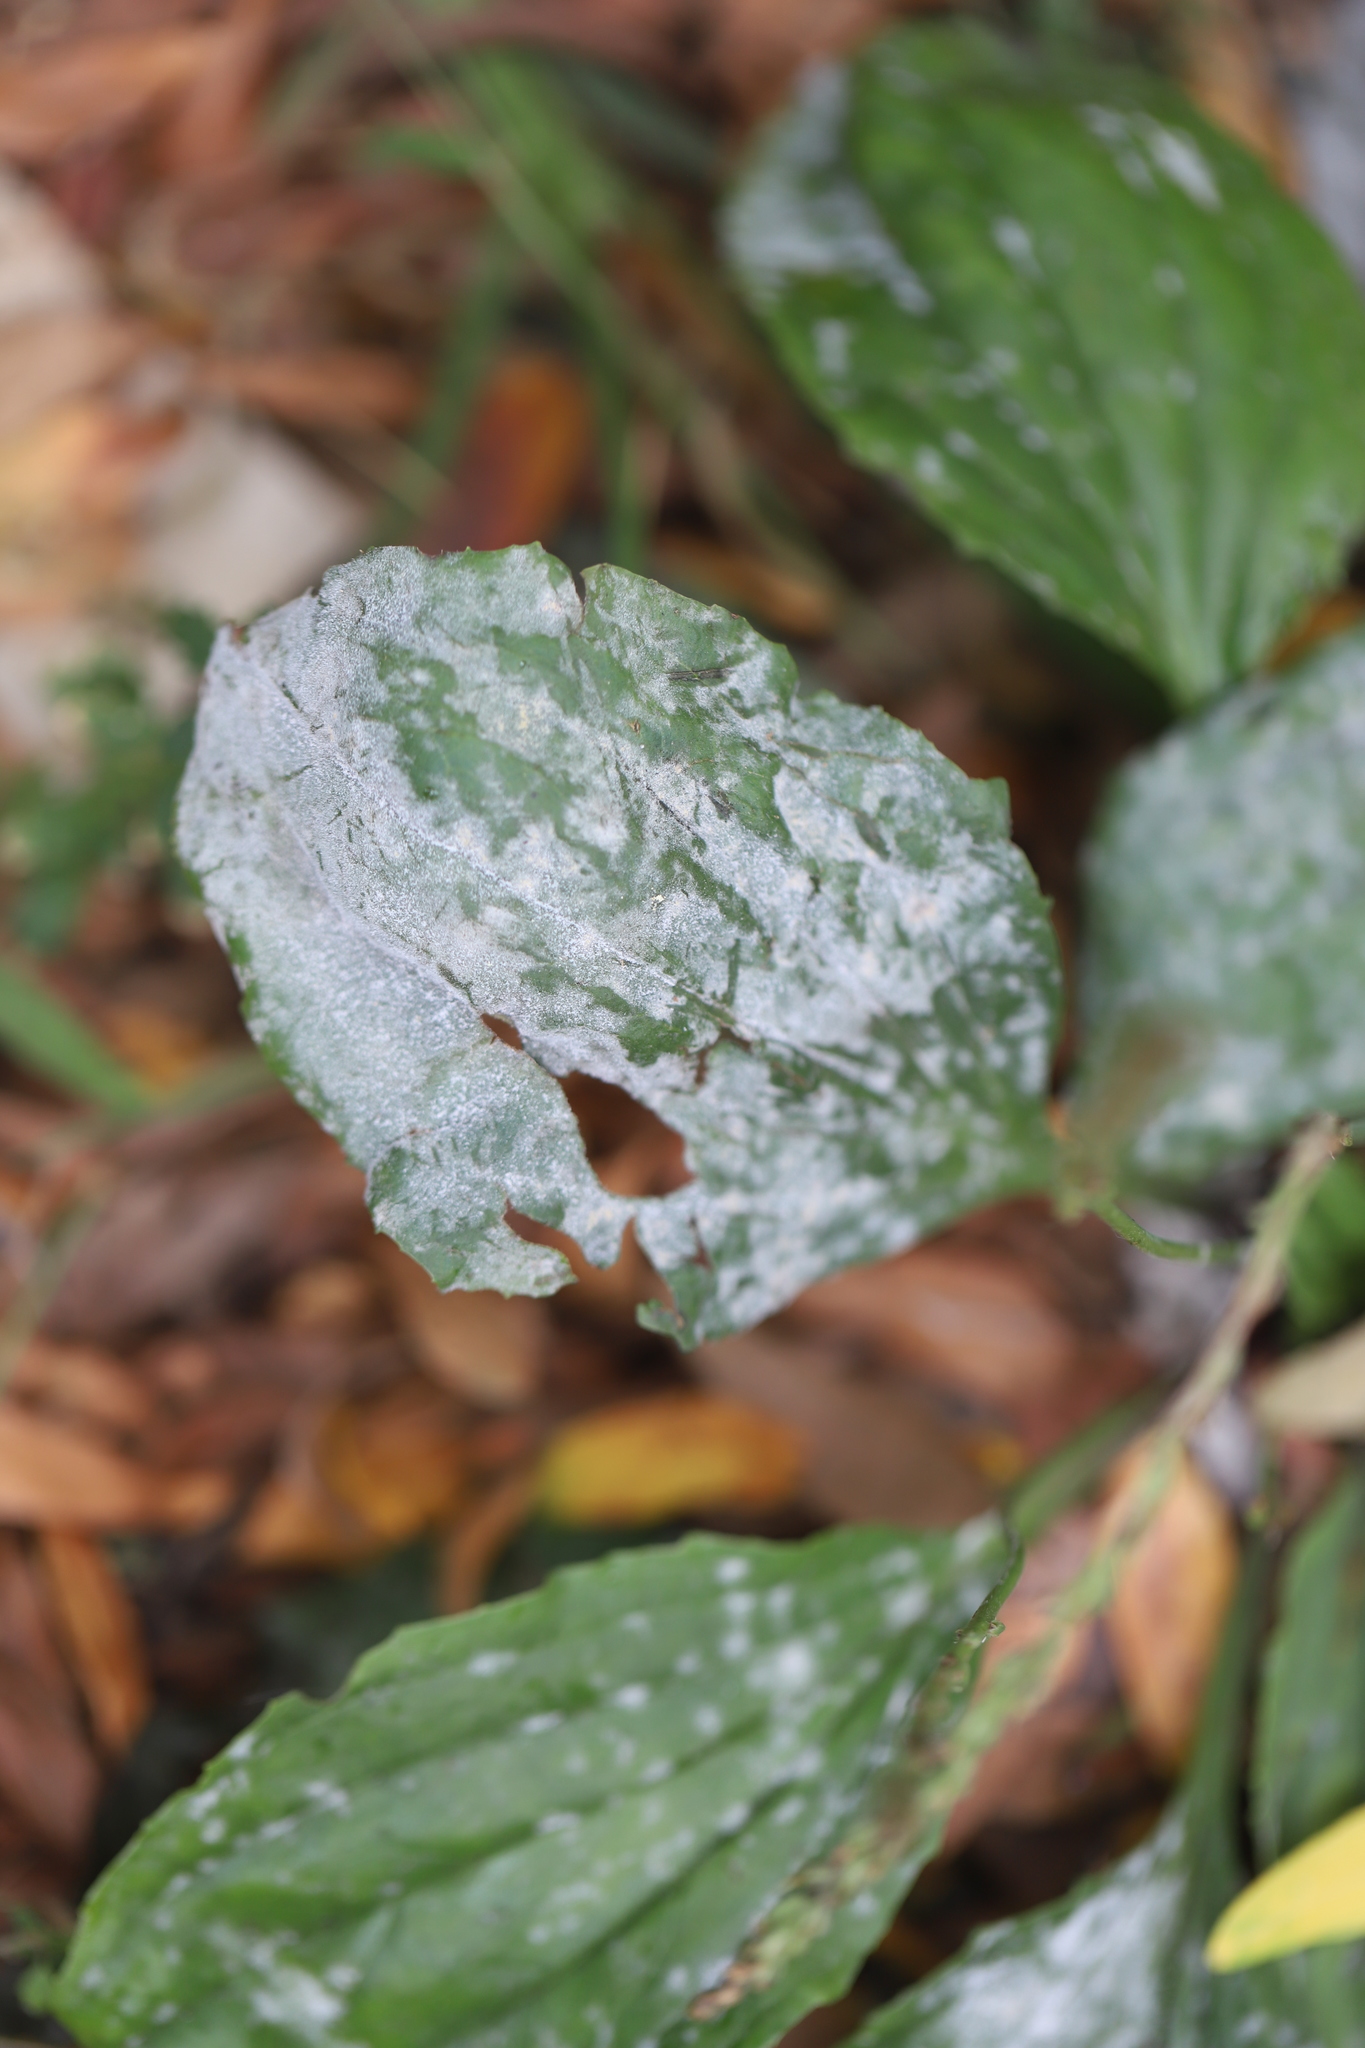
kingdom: Fungi
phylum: Ascomycota
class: Leotiomycetes
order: Helotiales
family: Erysiphaceae
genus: Golovinomyces
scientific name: Golovinomyces sordidus
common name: Plantain mildew
